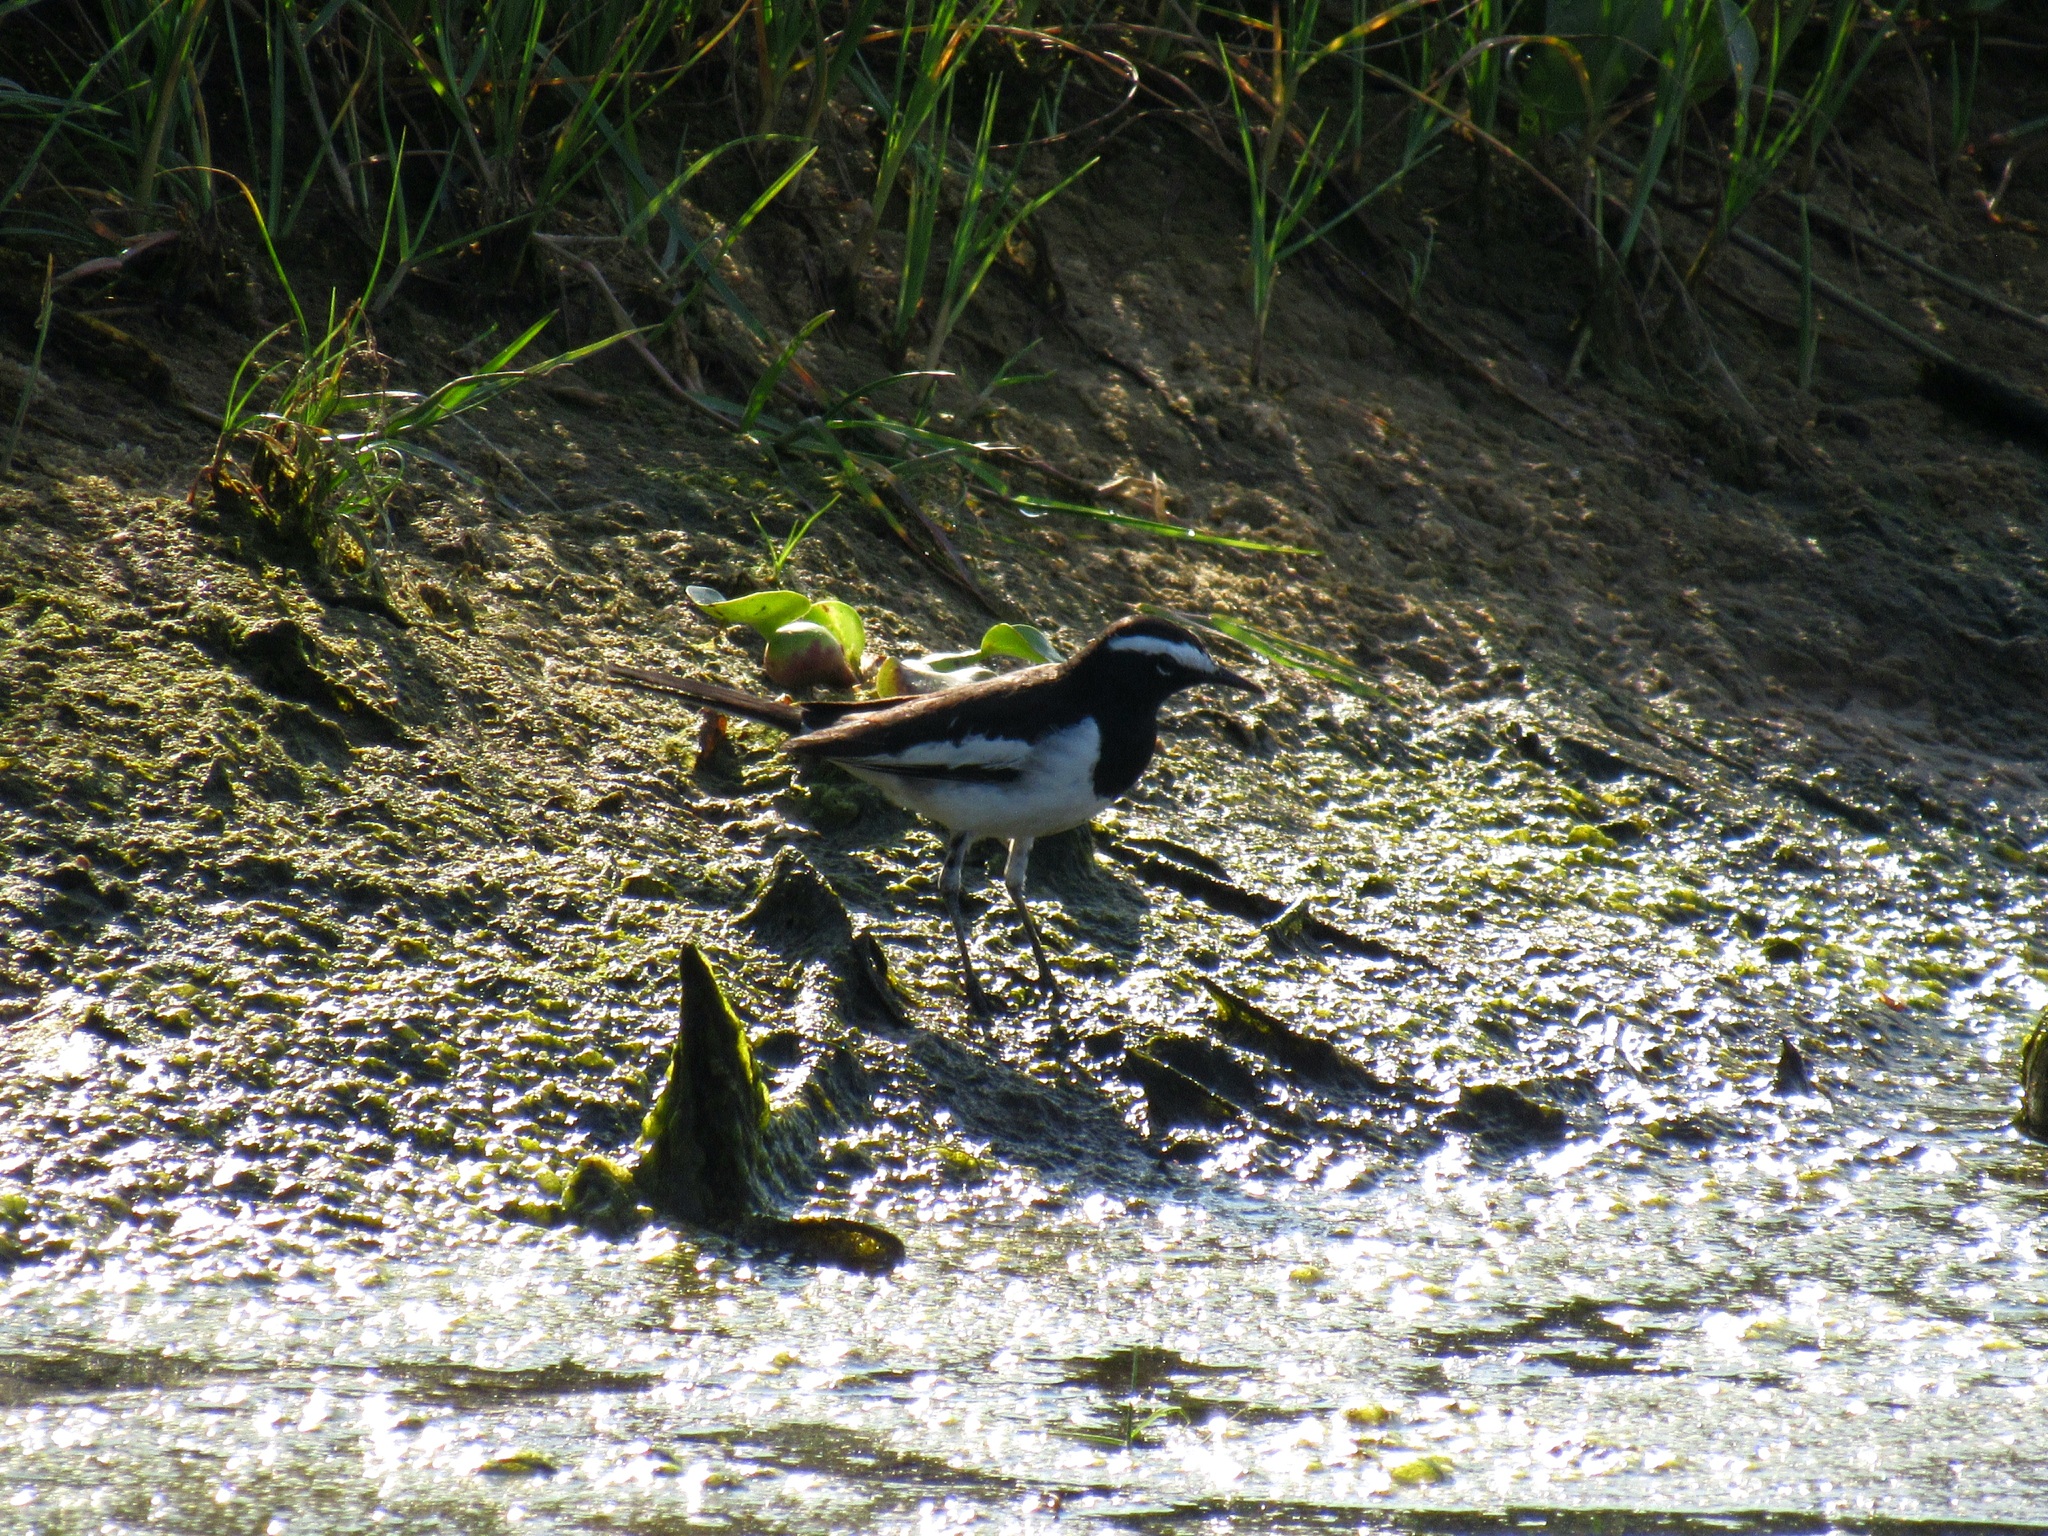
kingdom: Animalia
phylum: Chordata
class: Aves
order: Passeriformes
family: Motacillidae
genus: Motacilla
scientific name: Motacilla maderaspatensis
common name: White-browed wagtail
